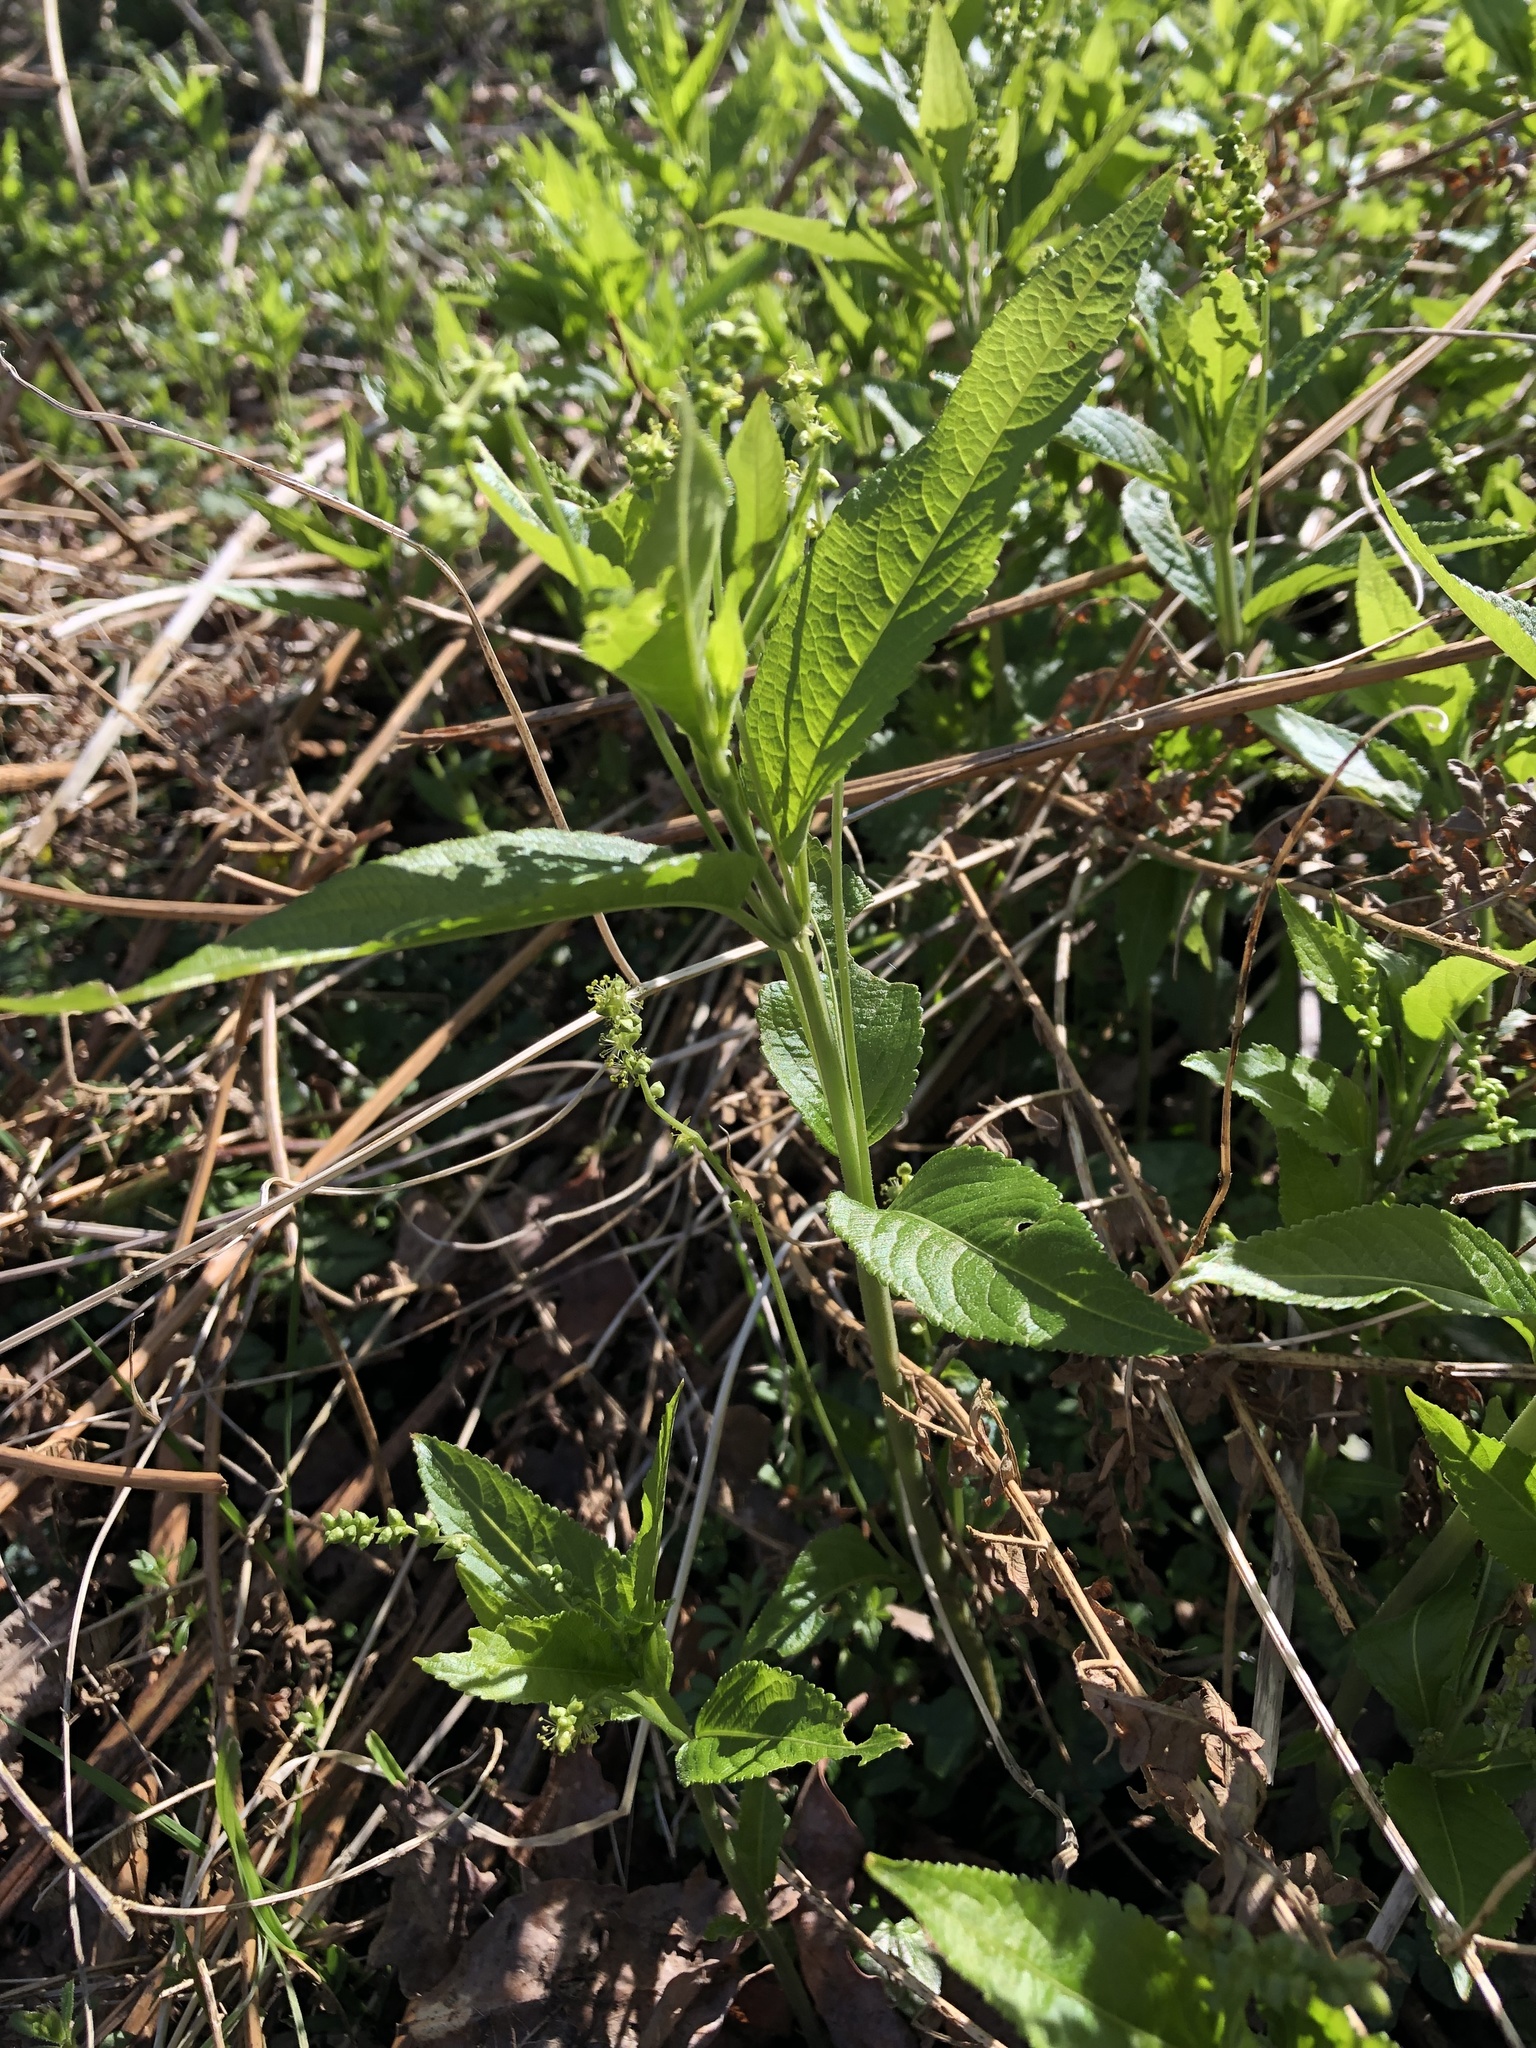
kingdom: Plantae
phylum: Tracheophyta
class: Magnoliopsida
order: Malpighiales
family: Euphorbiaceae
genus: Mercurialis
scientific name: Mercurialis perennis
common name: Dog mercury
